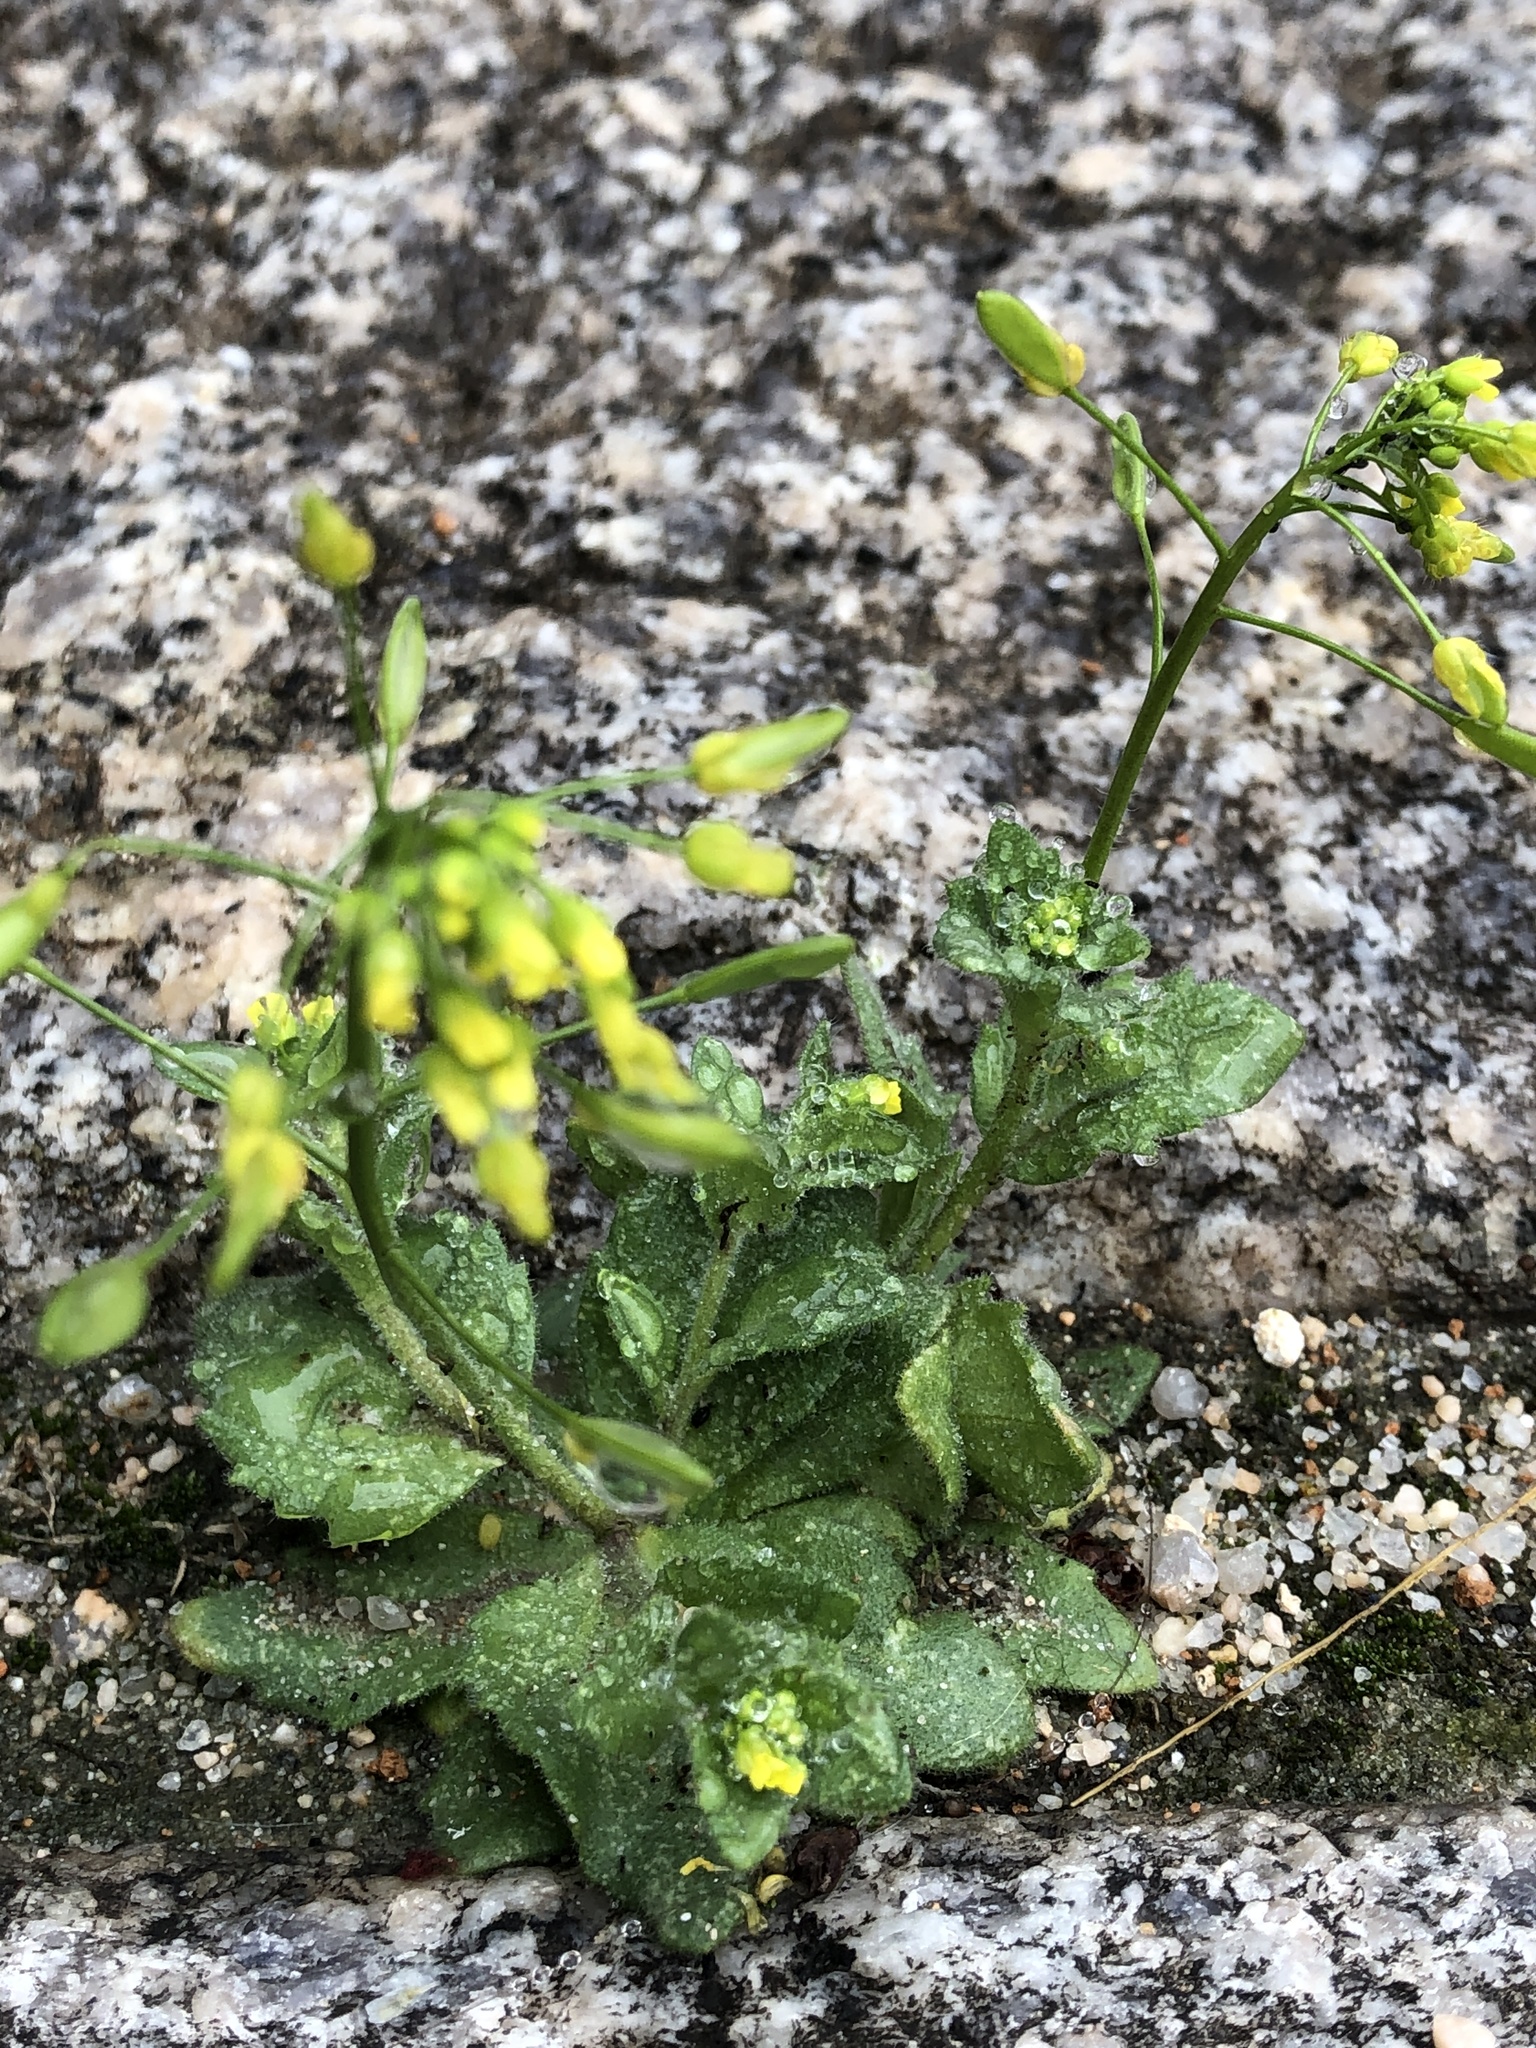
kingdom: Plantae
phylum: Tracheophyta
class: Magnoliopsida
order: Brassicales
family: Brassicaceae
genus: Draba
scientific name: Draba nemorosa
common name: Wood whitlow-grass
